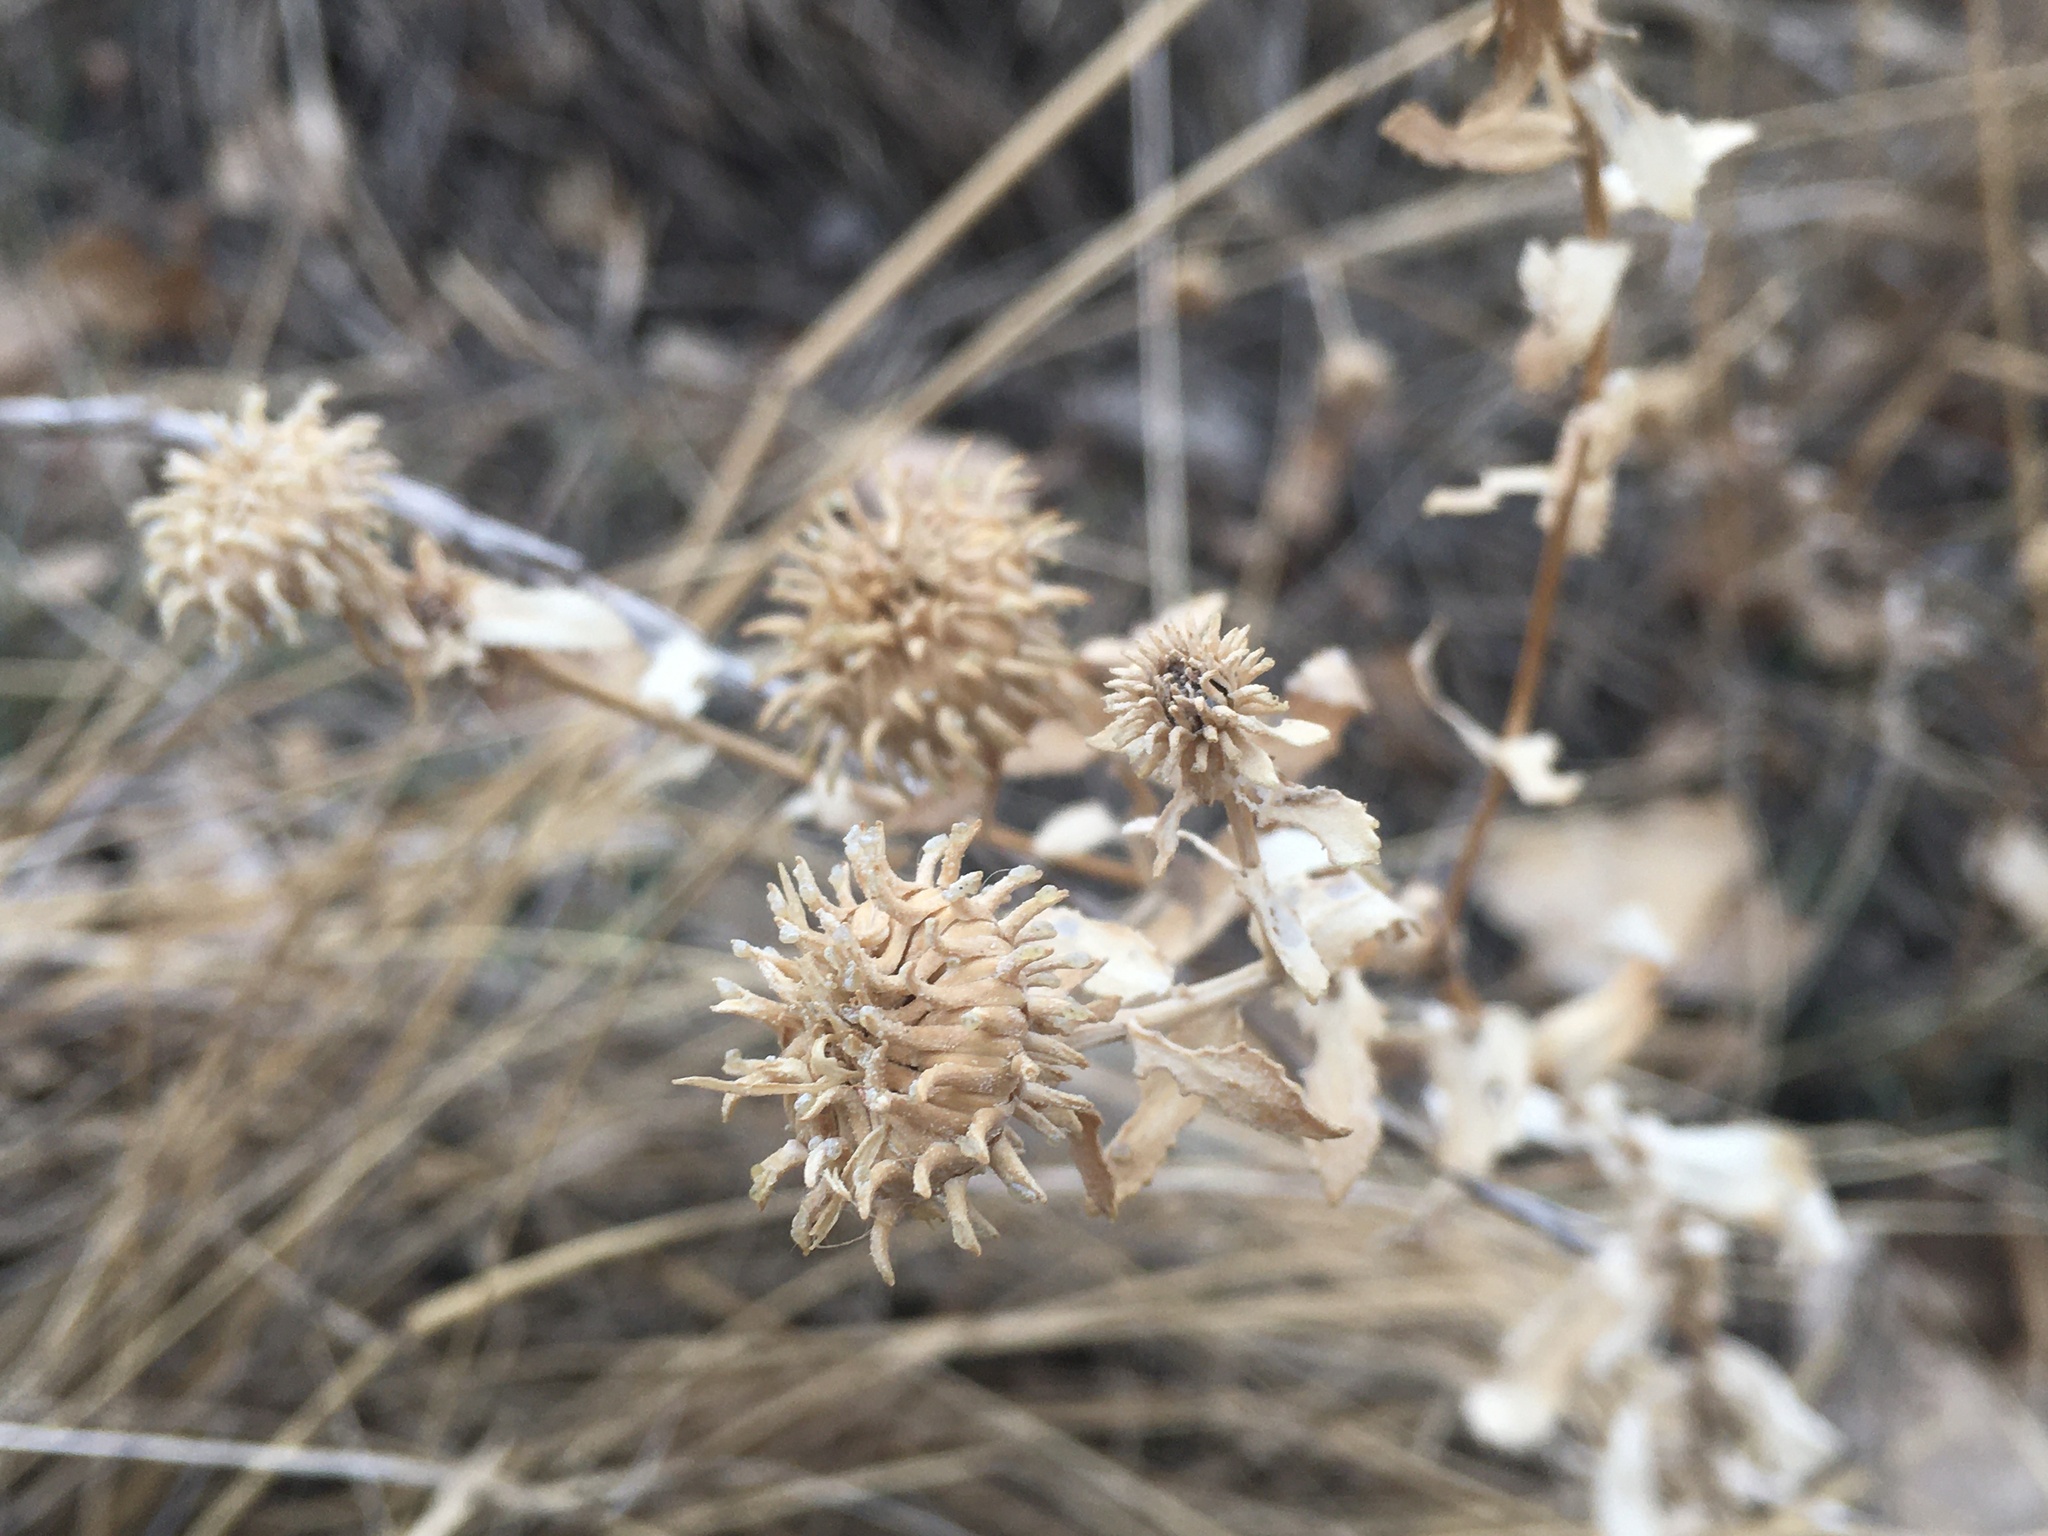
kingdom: Plantae
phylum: Tracheophyta
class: Magnoliopsida
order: Asterales
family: Asteraceae
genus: Grindelia
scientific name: Grindelia squarrosa
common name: Curly-cup gumweed
